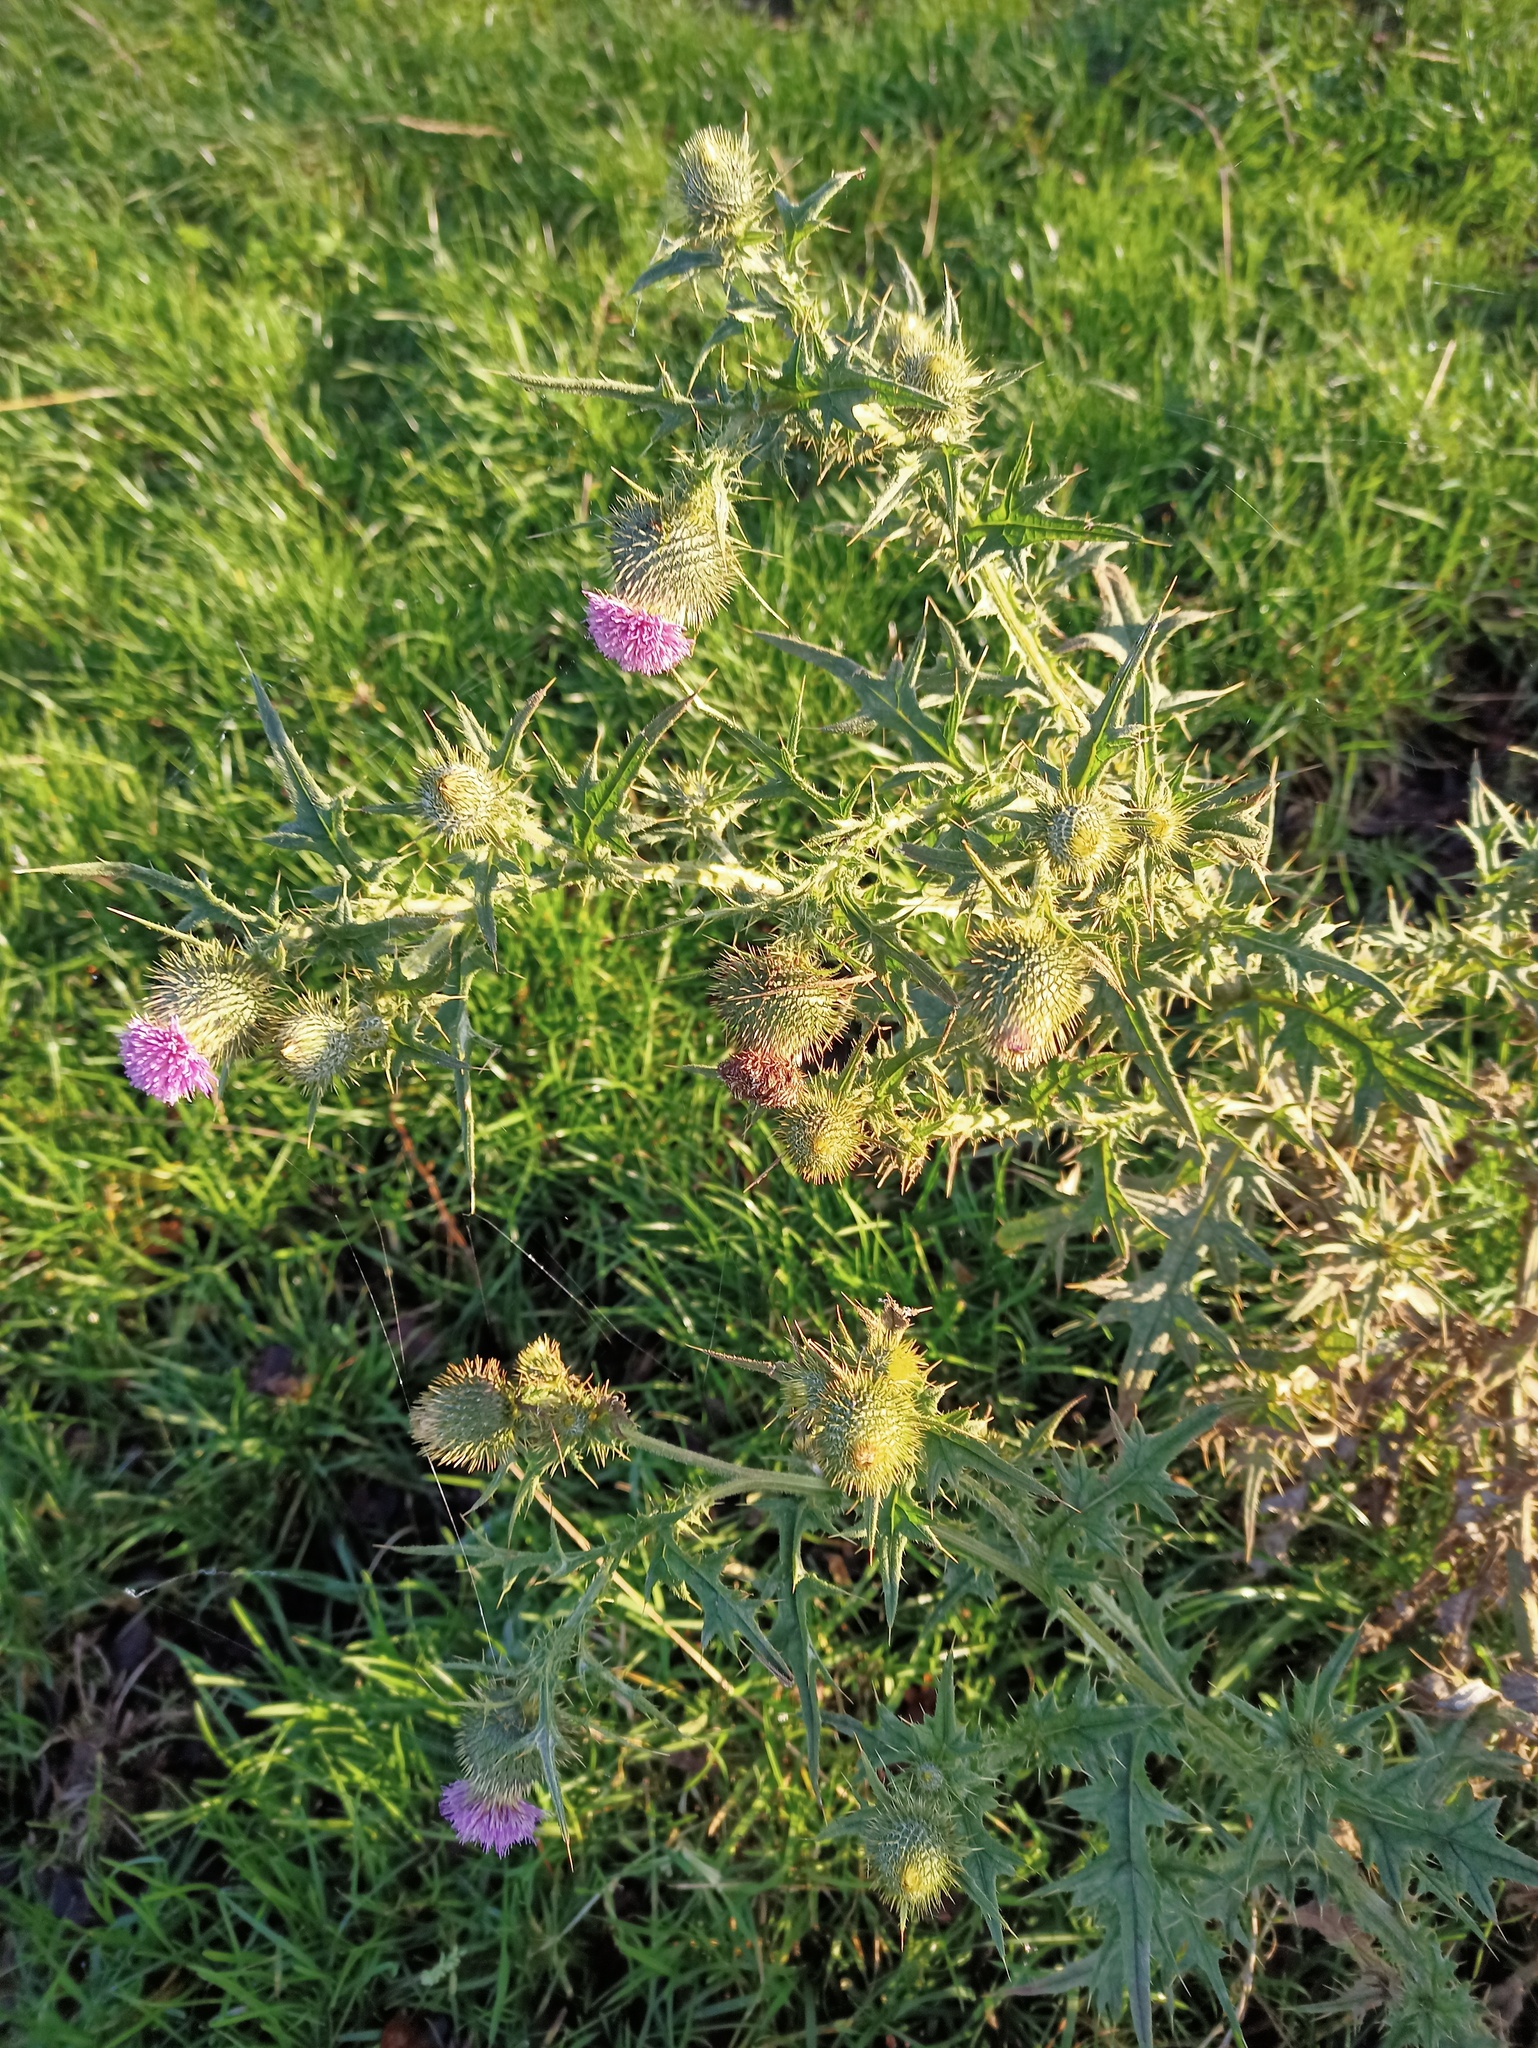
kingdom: Plantae
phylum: Tracheophyta
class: Magnoliopsida
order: Asterales
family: Asteraceae
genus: Cirsium
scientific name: Cirsium vulgare
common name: Bull thistle
